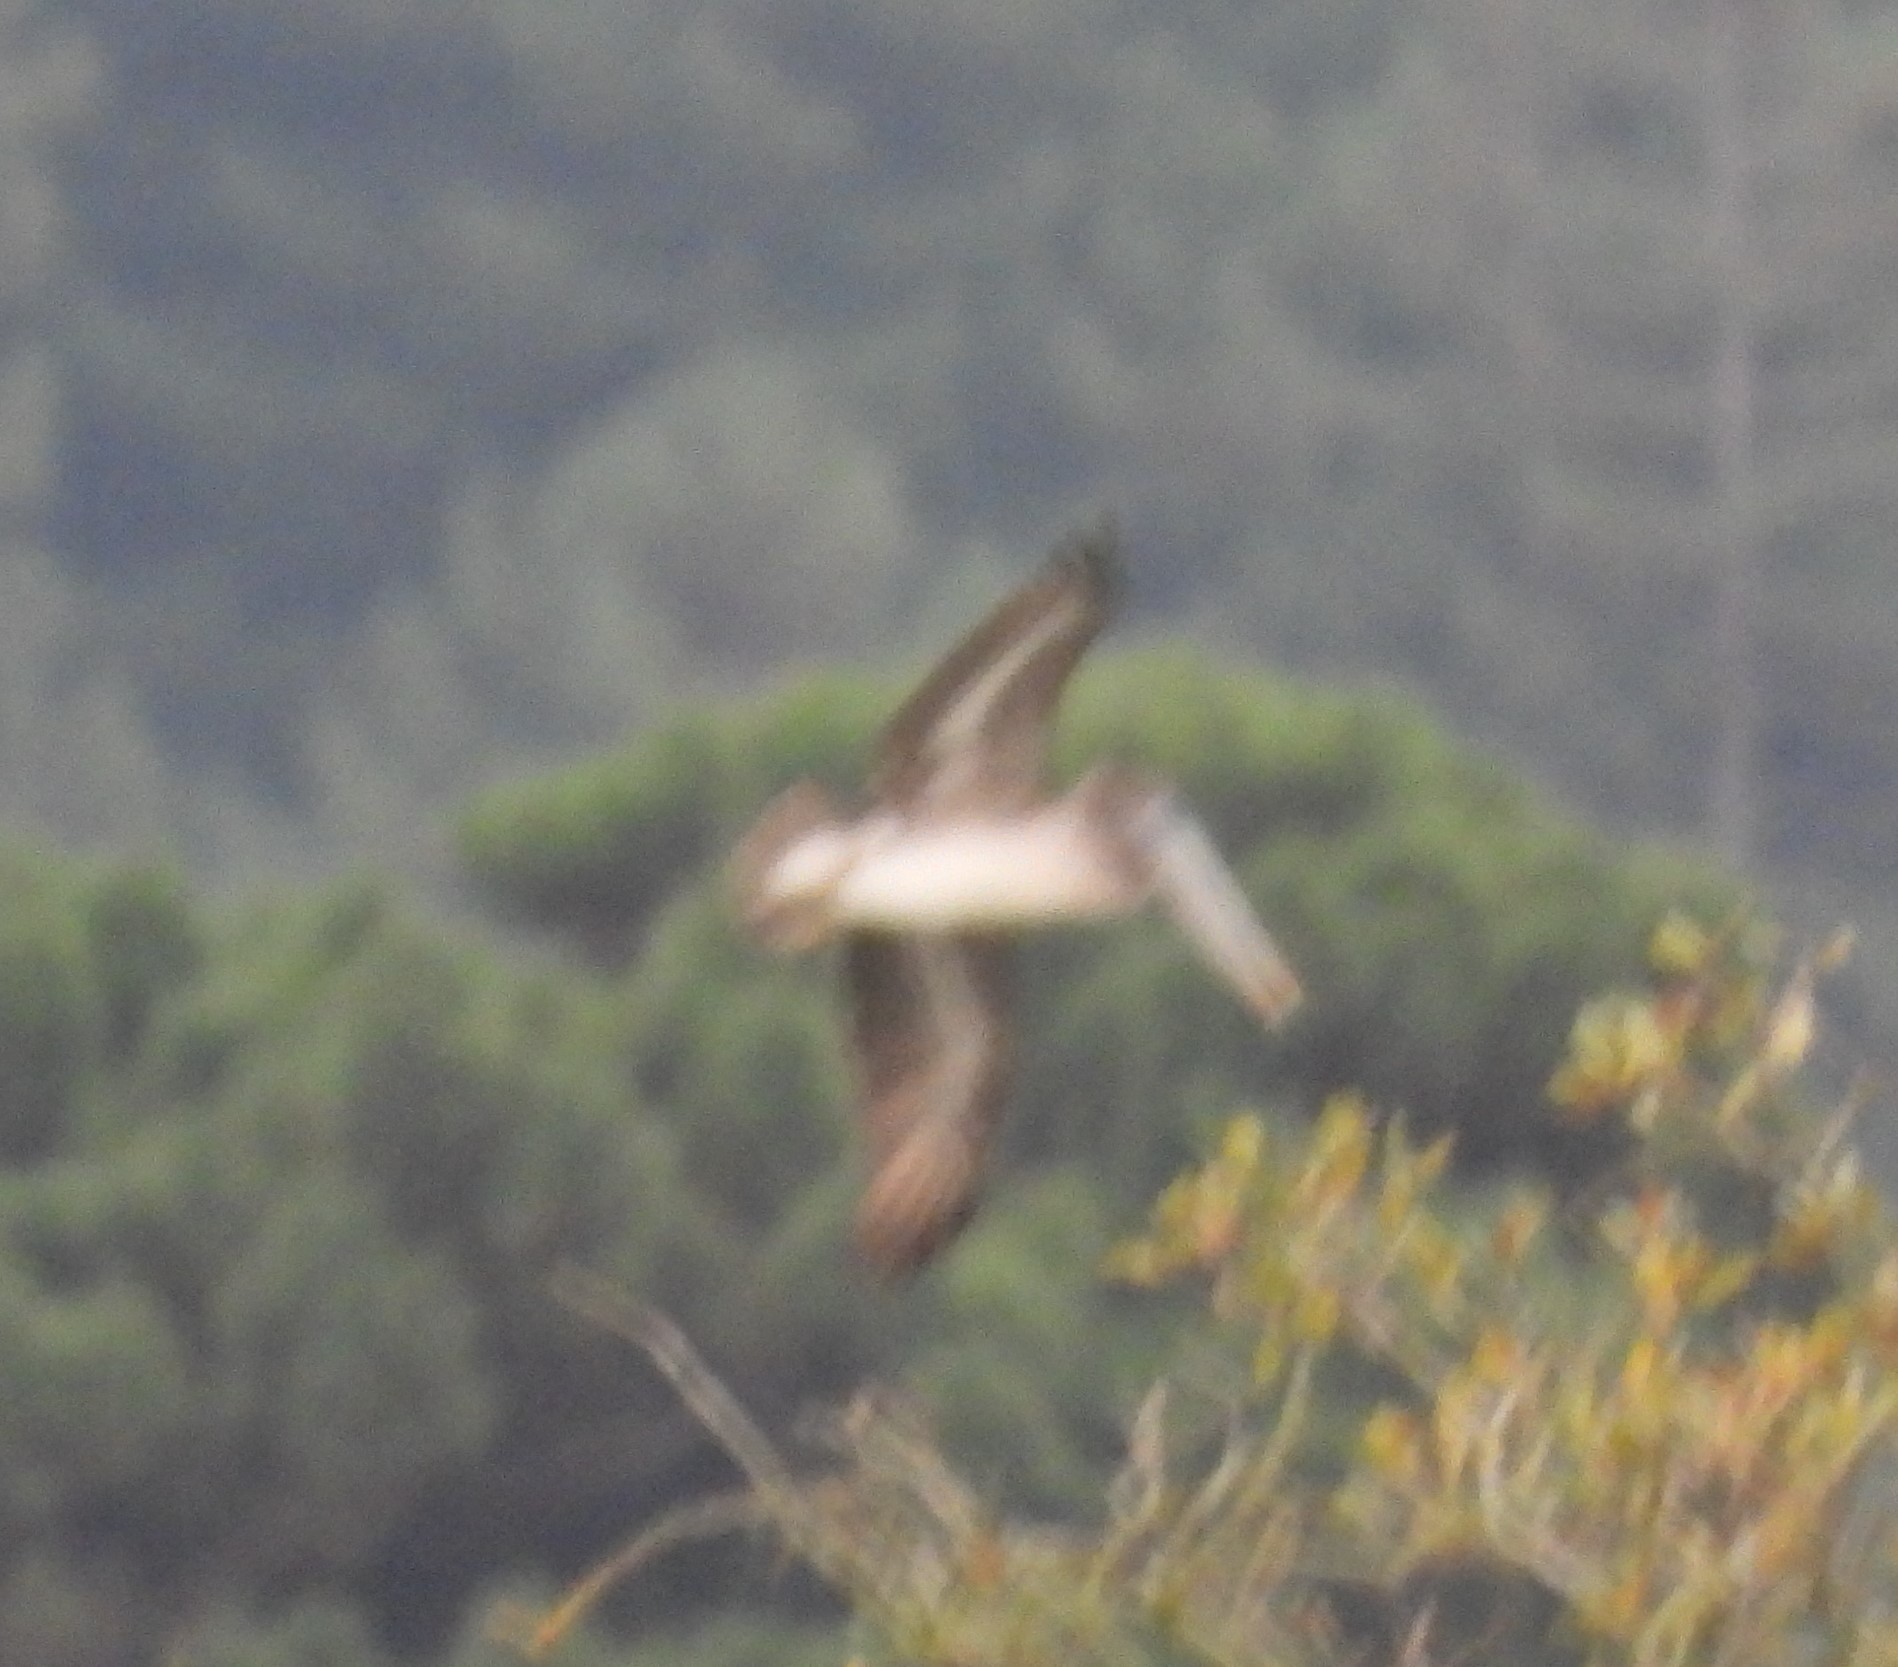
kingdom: Animalia
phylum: Chordata
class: Aves
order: Pelecaniformes
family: Pelecanidae
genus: Pelecanus
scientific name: Pelecanus occidentalis
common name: Brown pelican
